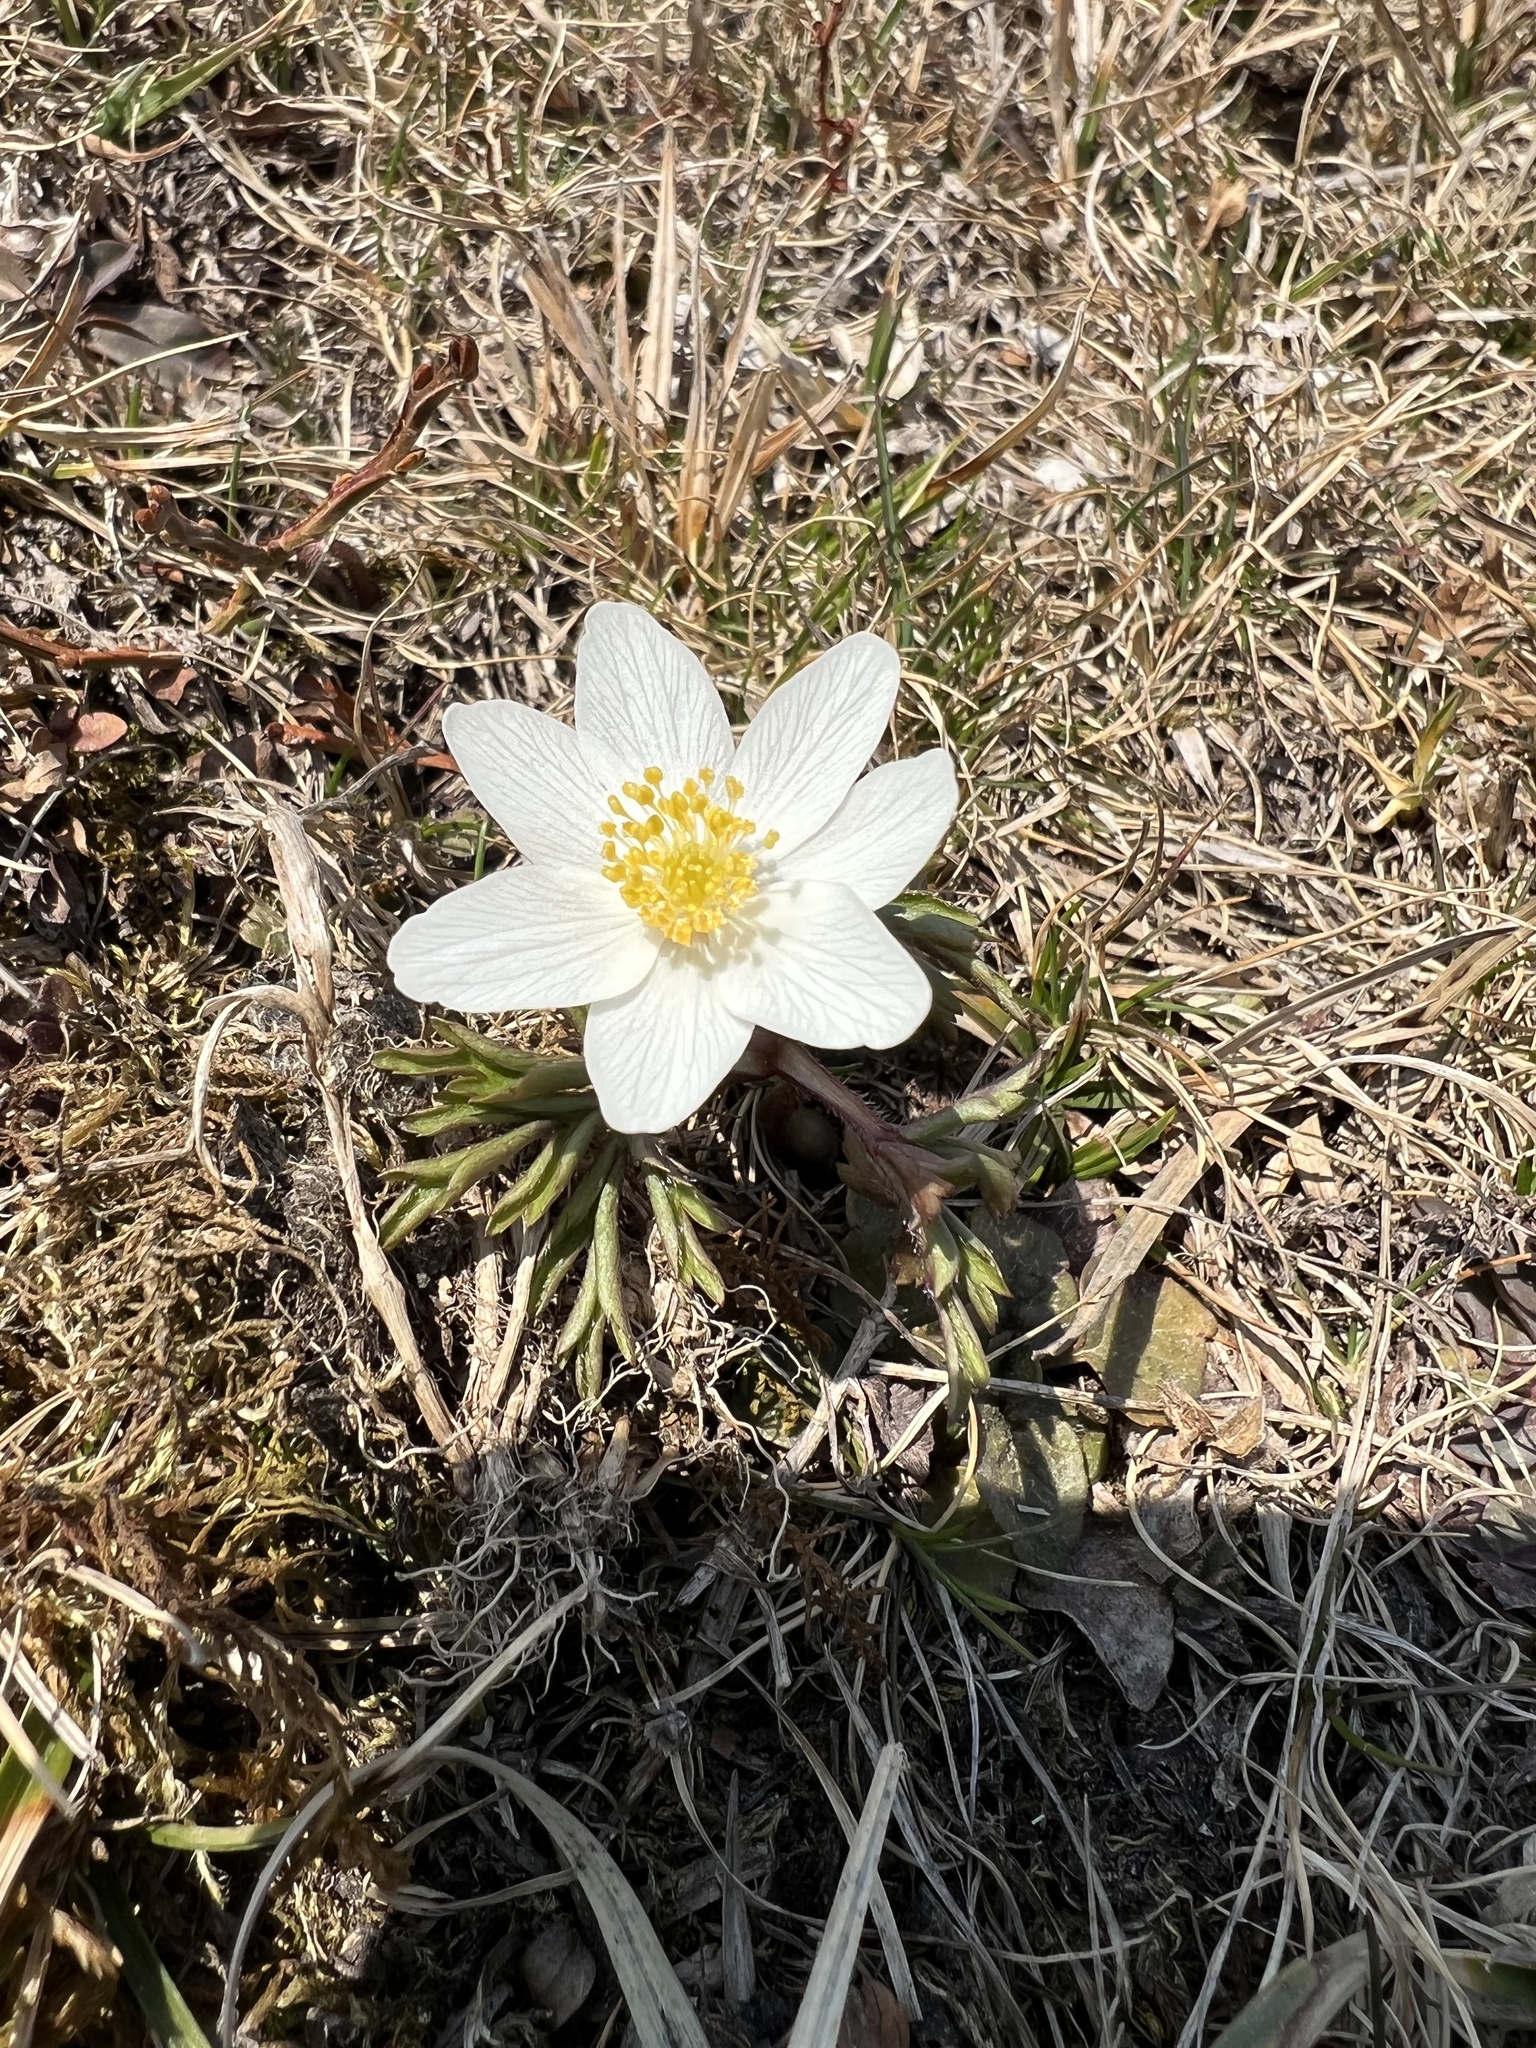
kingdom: Plantae
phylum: Tracheophyta
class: Magnoliopsida
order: Ranunculales
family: Ranunculaceae
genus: Anemone
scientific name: Anemone nemorosa
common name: Wood anemone
